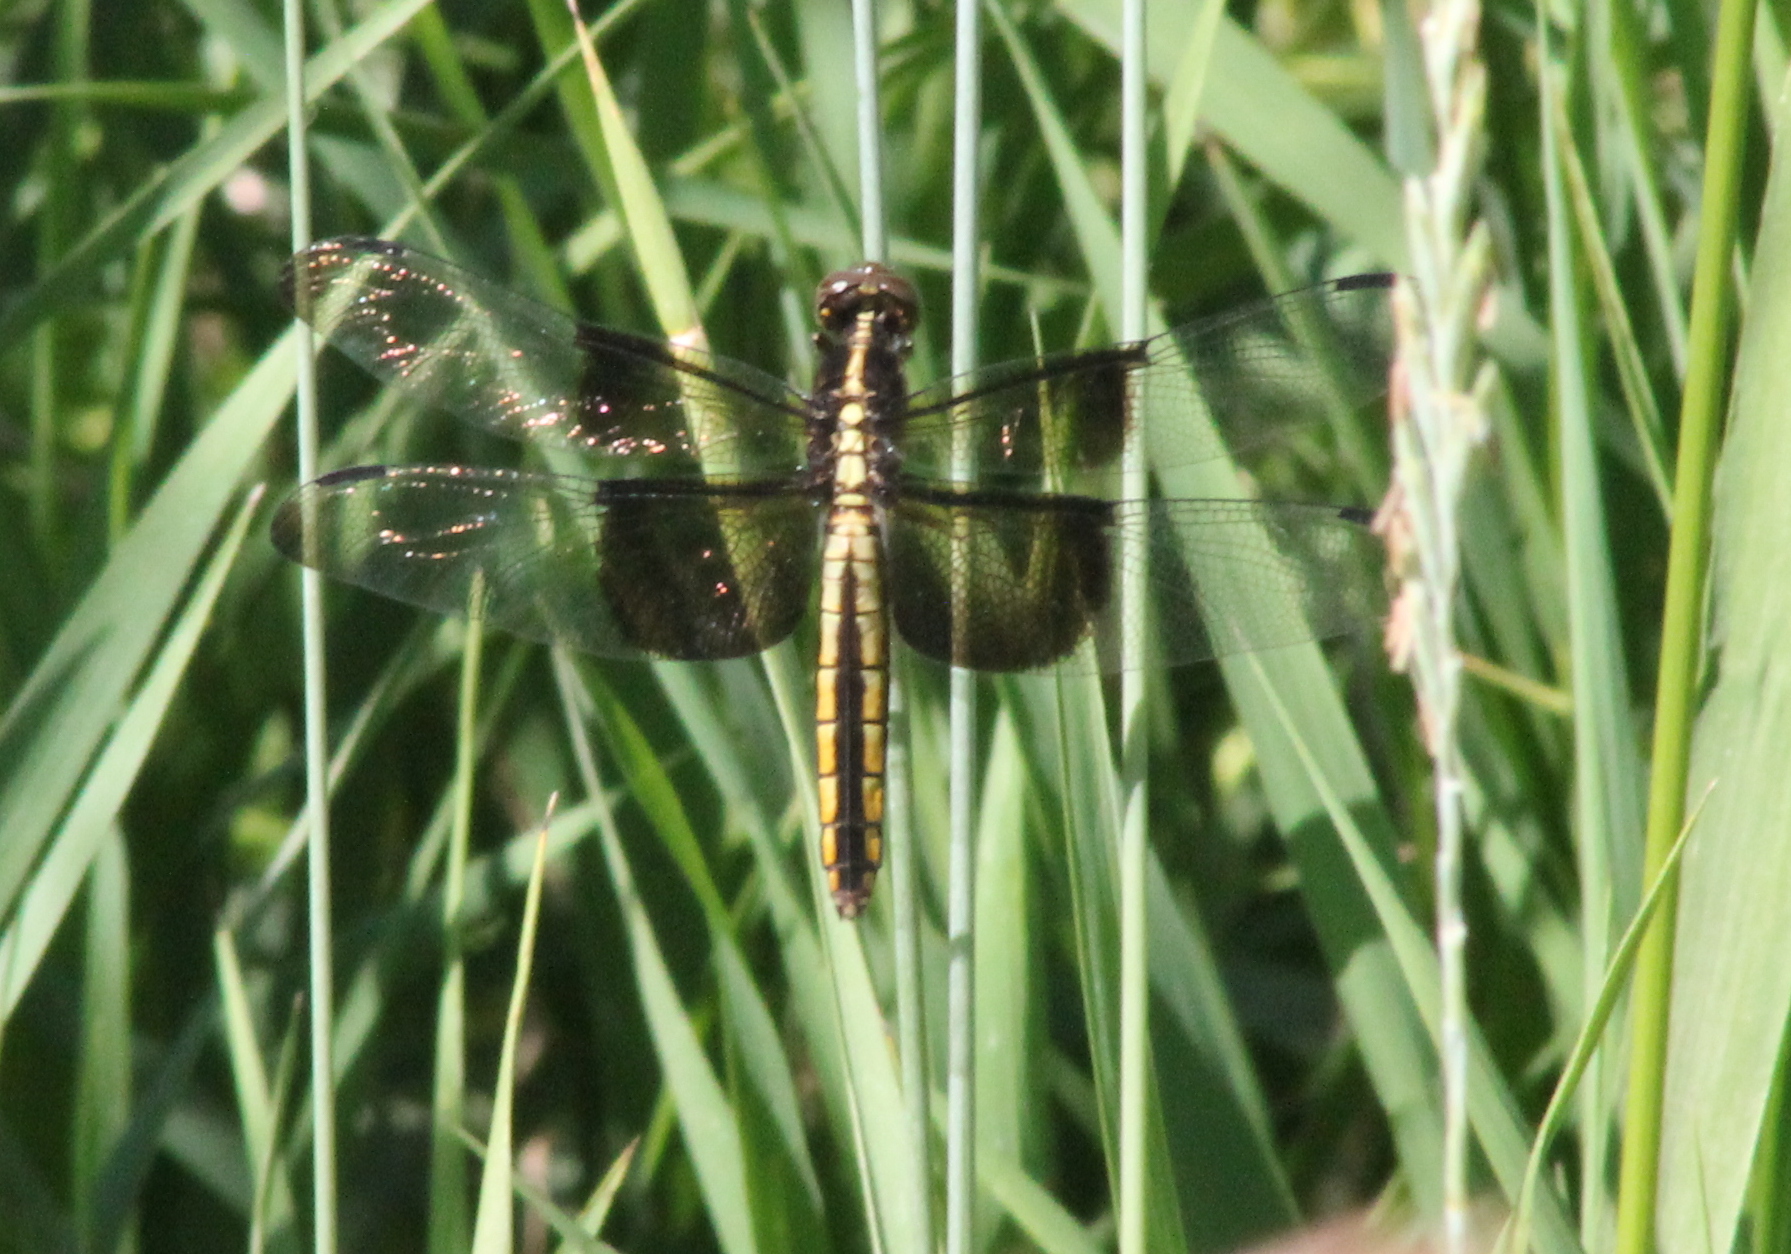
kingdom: Animalia
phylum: Arthropoda
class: Insecta
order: Odonata
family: Libellulidae
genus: Libellula
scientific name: Libellula luctuosa
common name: Widow skimmer
